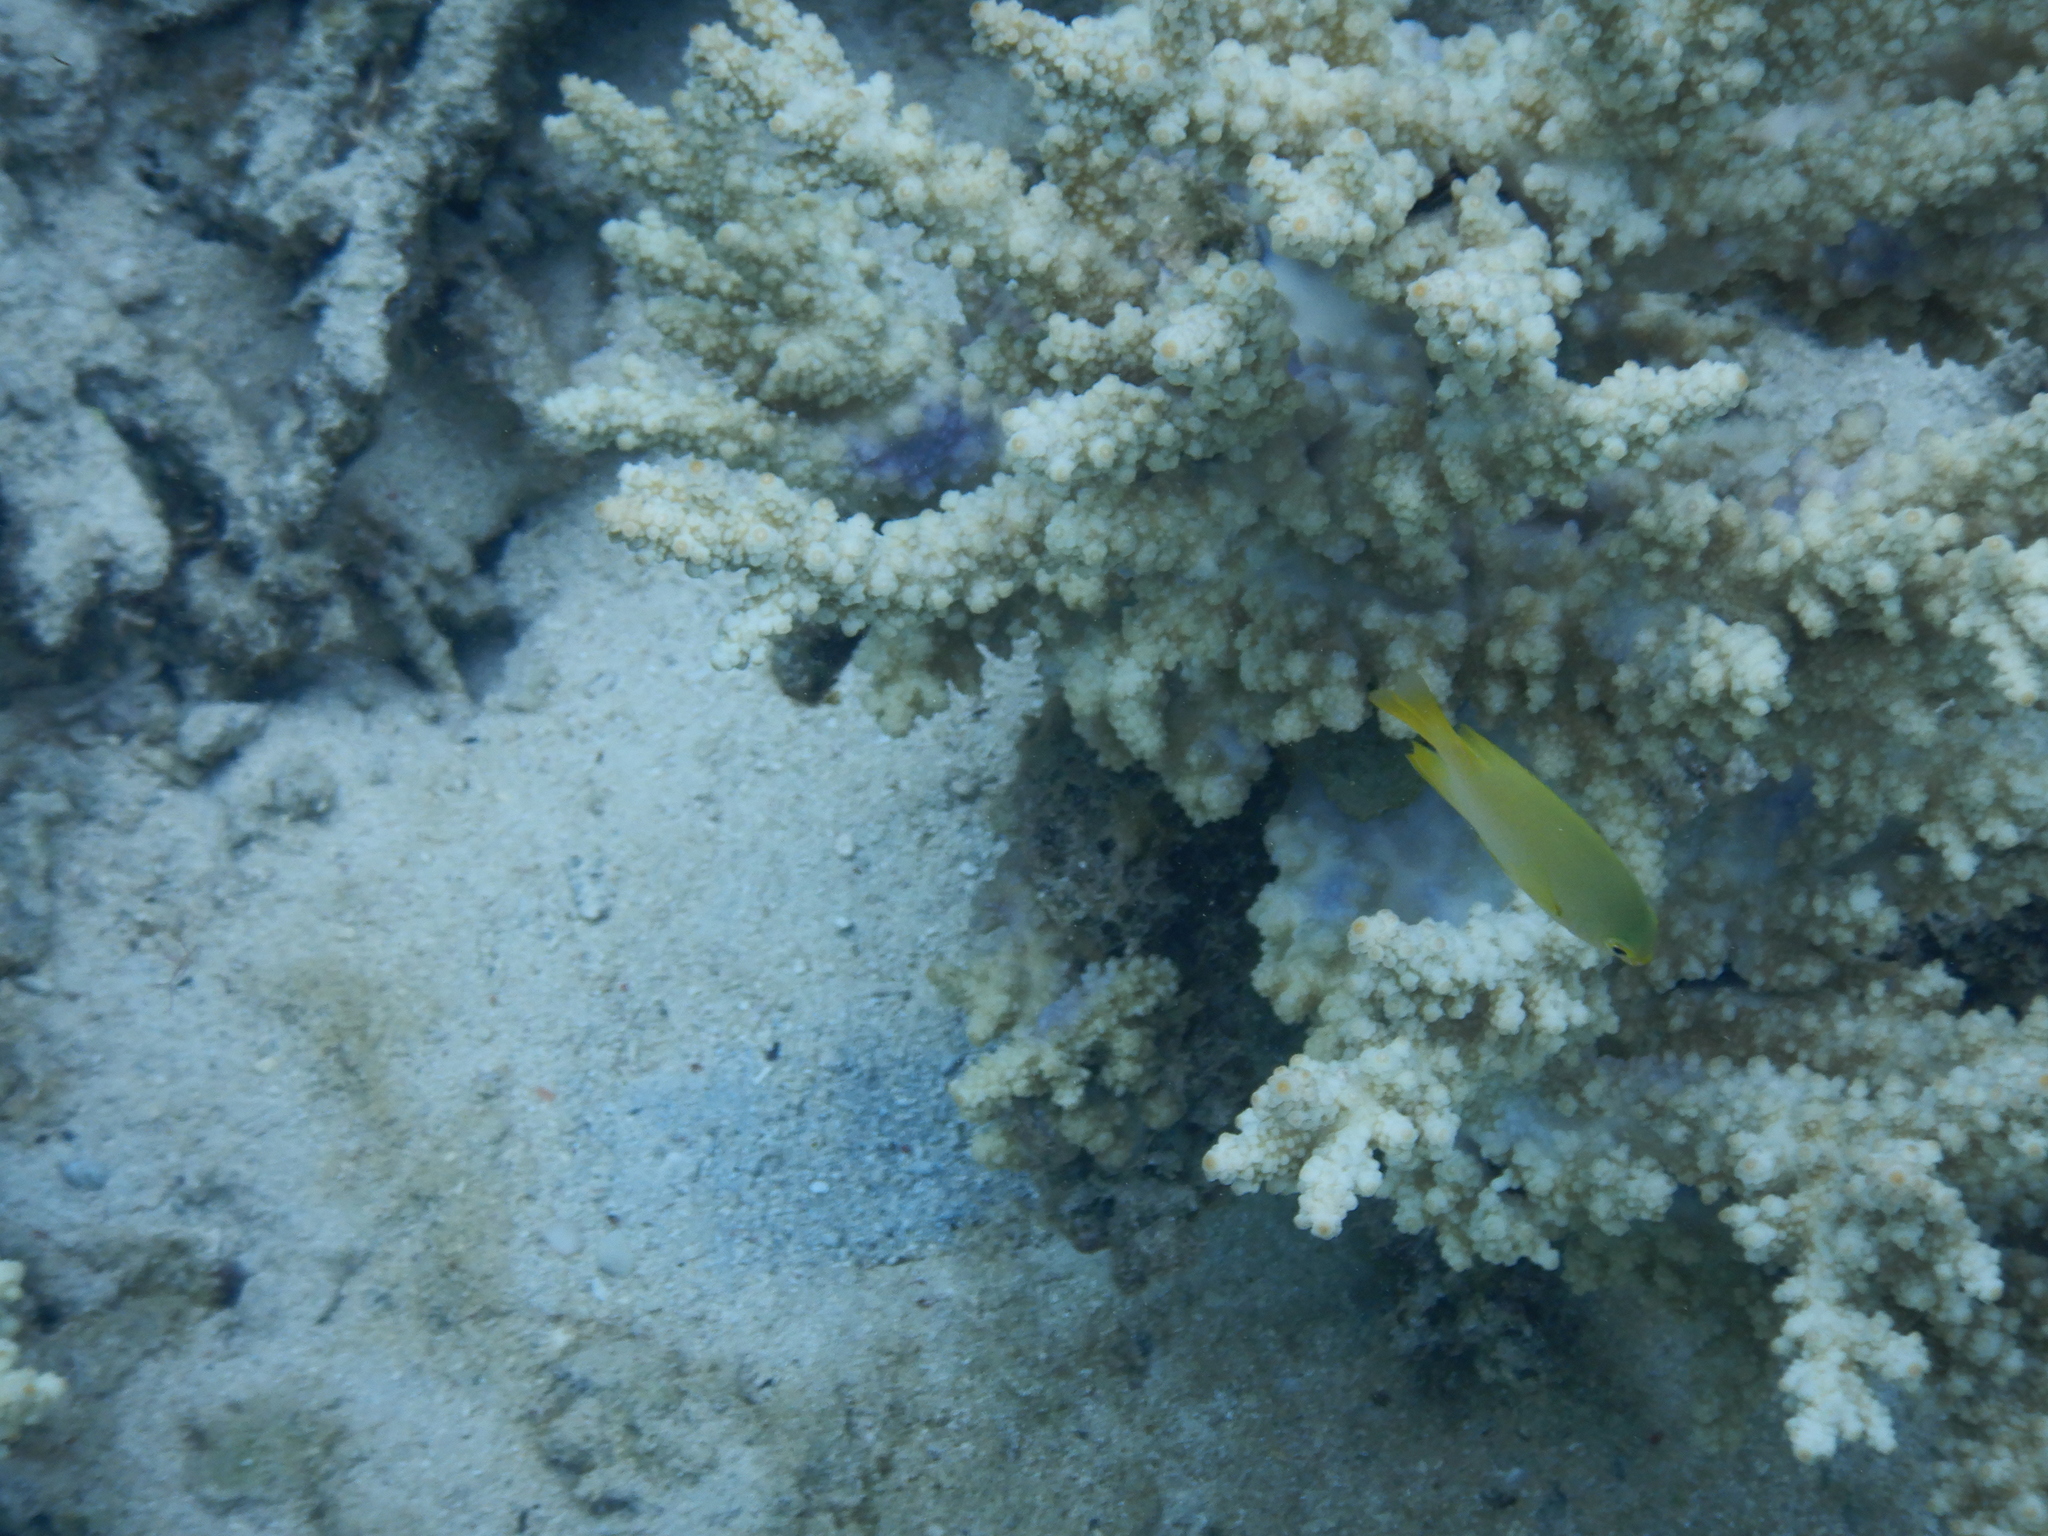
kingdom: Animalia
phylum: Chordata
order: Perciformes
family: Pomacentridae
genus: Pomacentrus
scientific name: Pomacentrus moluccensis
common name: Lemon damsel
